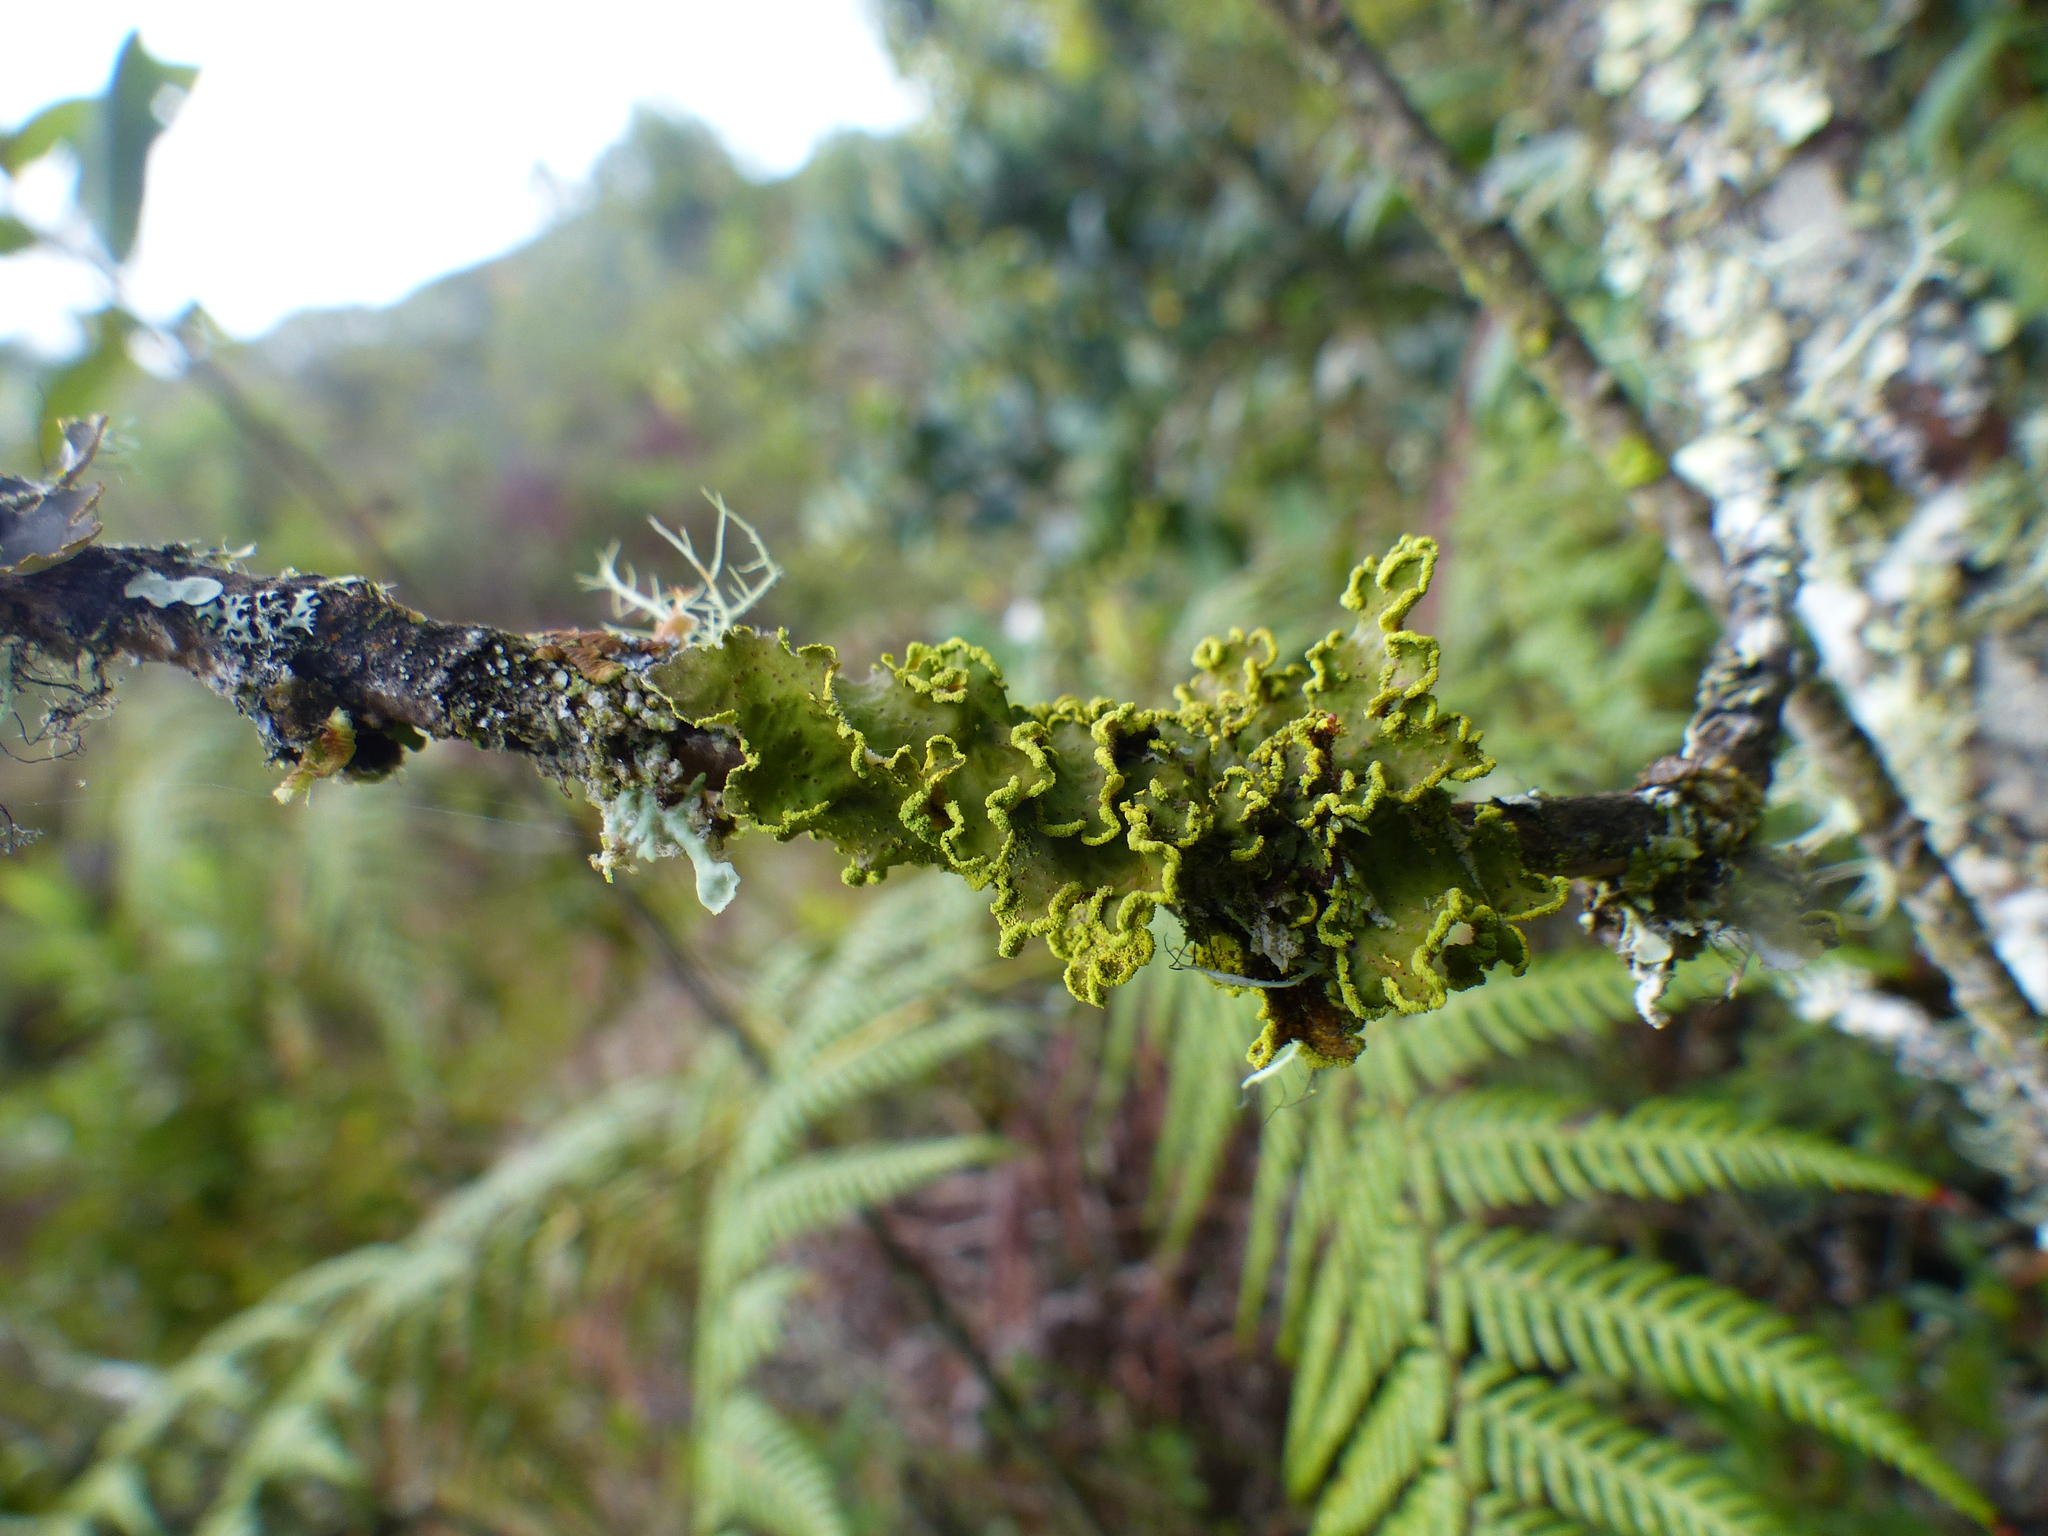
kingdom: Fungi
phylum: Ascomycota
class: Lecanoromycetes
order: Peltigerales
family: Lobariaceae
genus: Pseudocyphellaria
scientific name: Pseudocyphellaria aurata
